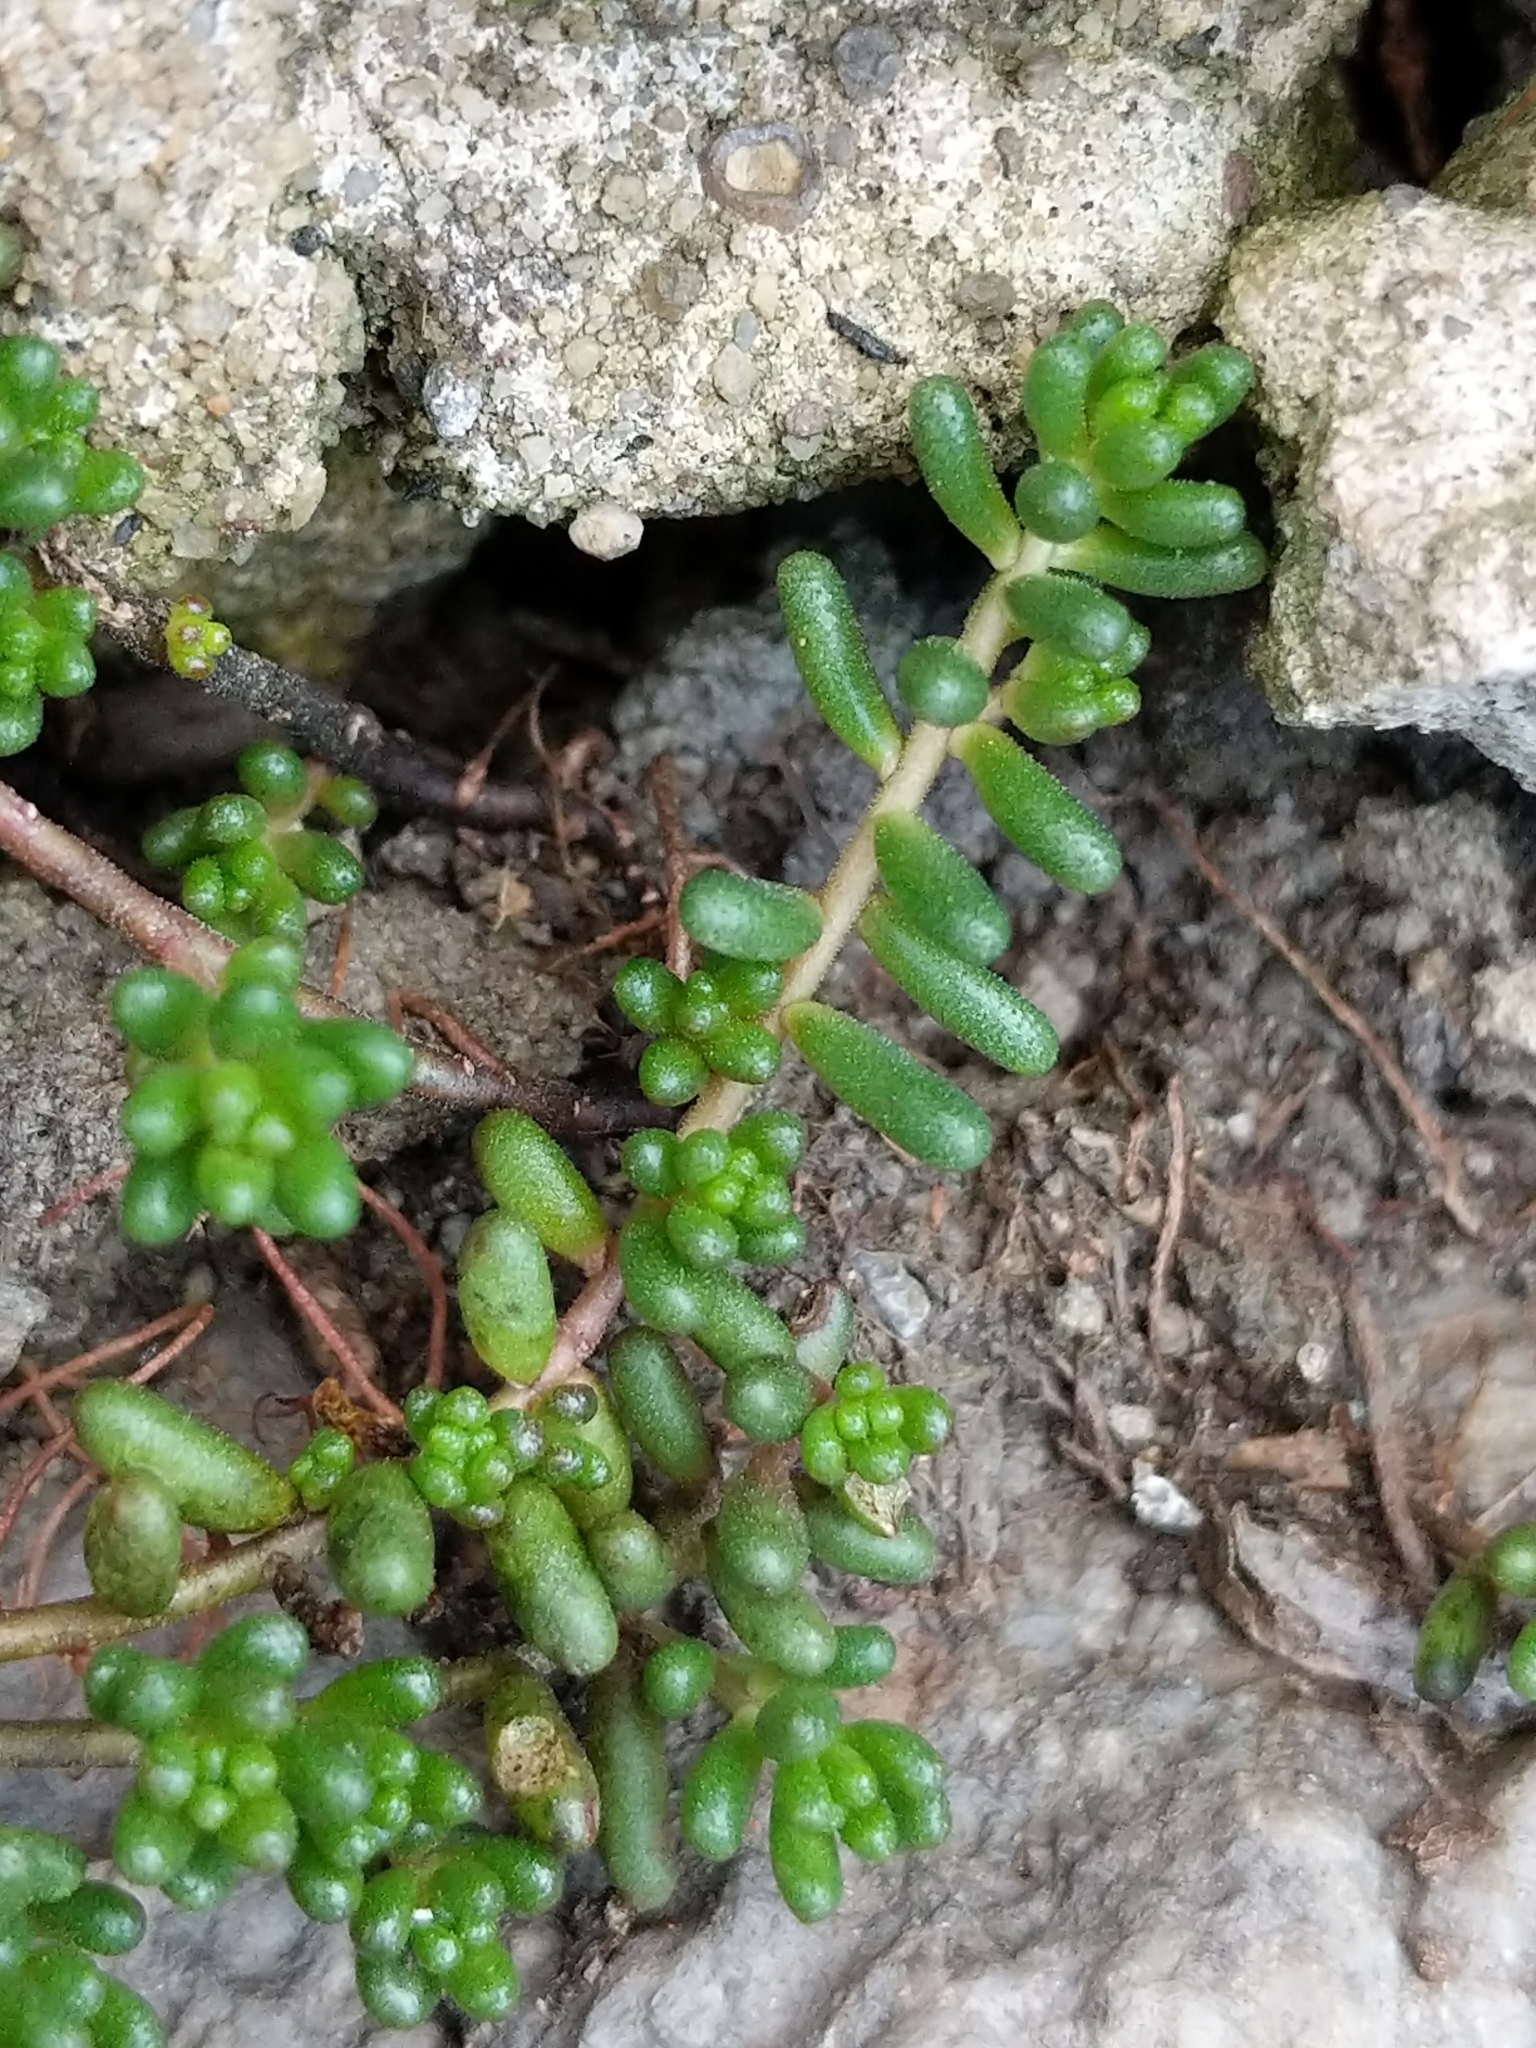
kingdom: Plantae
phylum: Tracheophyta
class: Magnoliopsida
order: Saxifragales
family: Crassulaceae
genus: Sedum
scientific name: Sedum album
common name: White stonecrop
